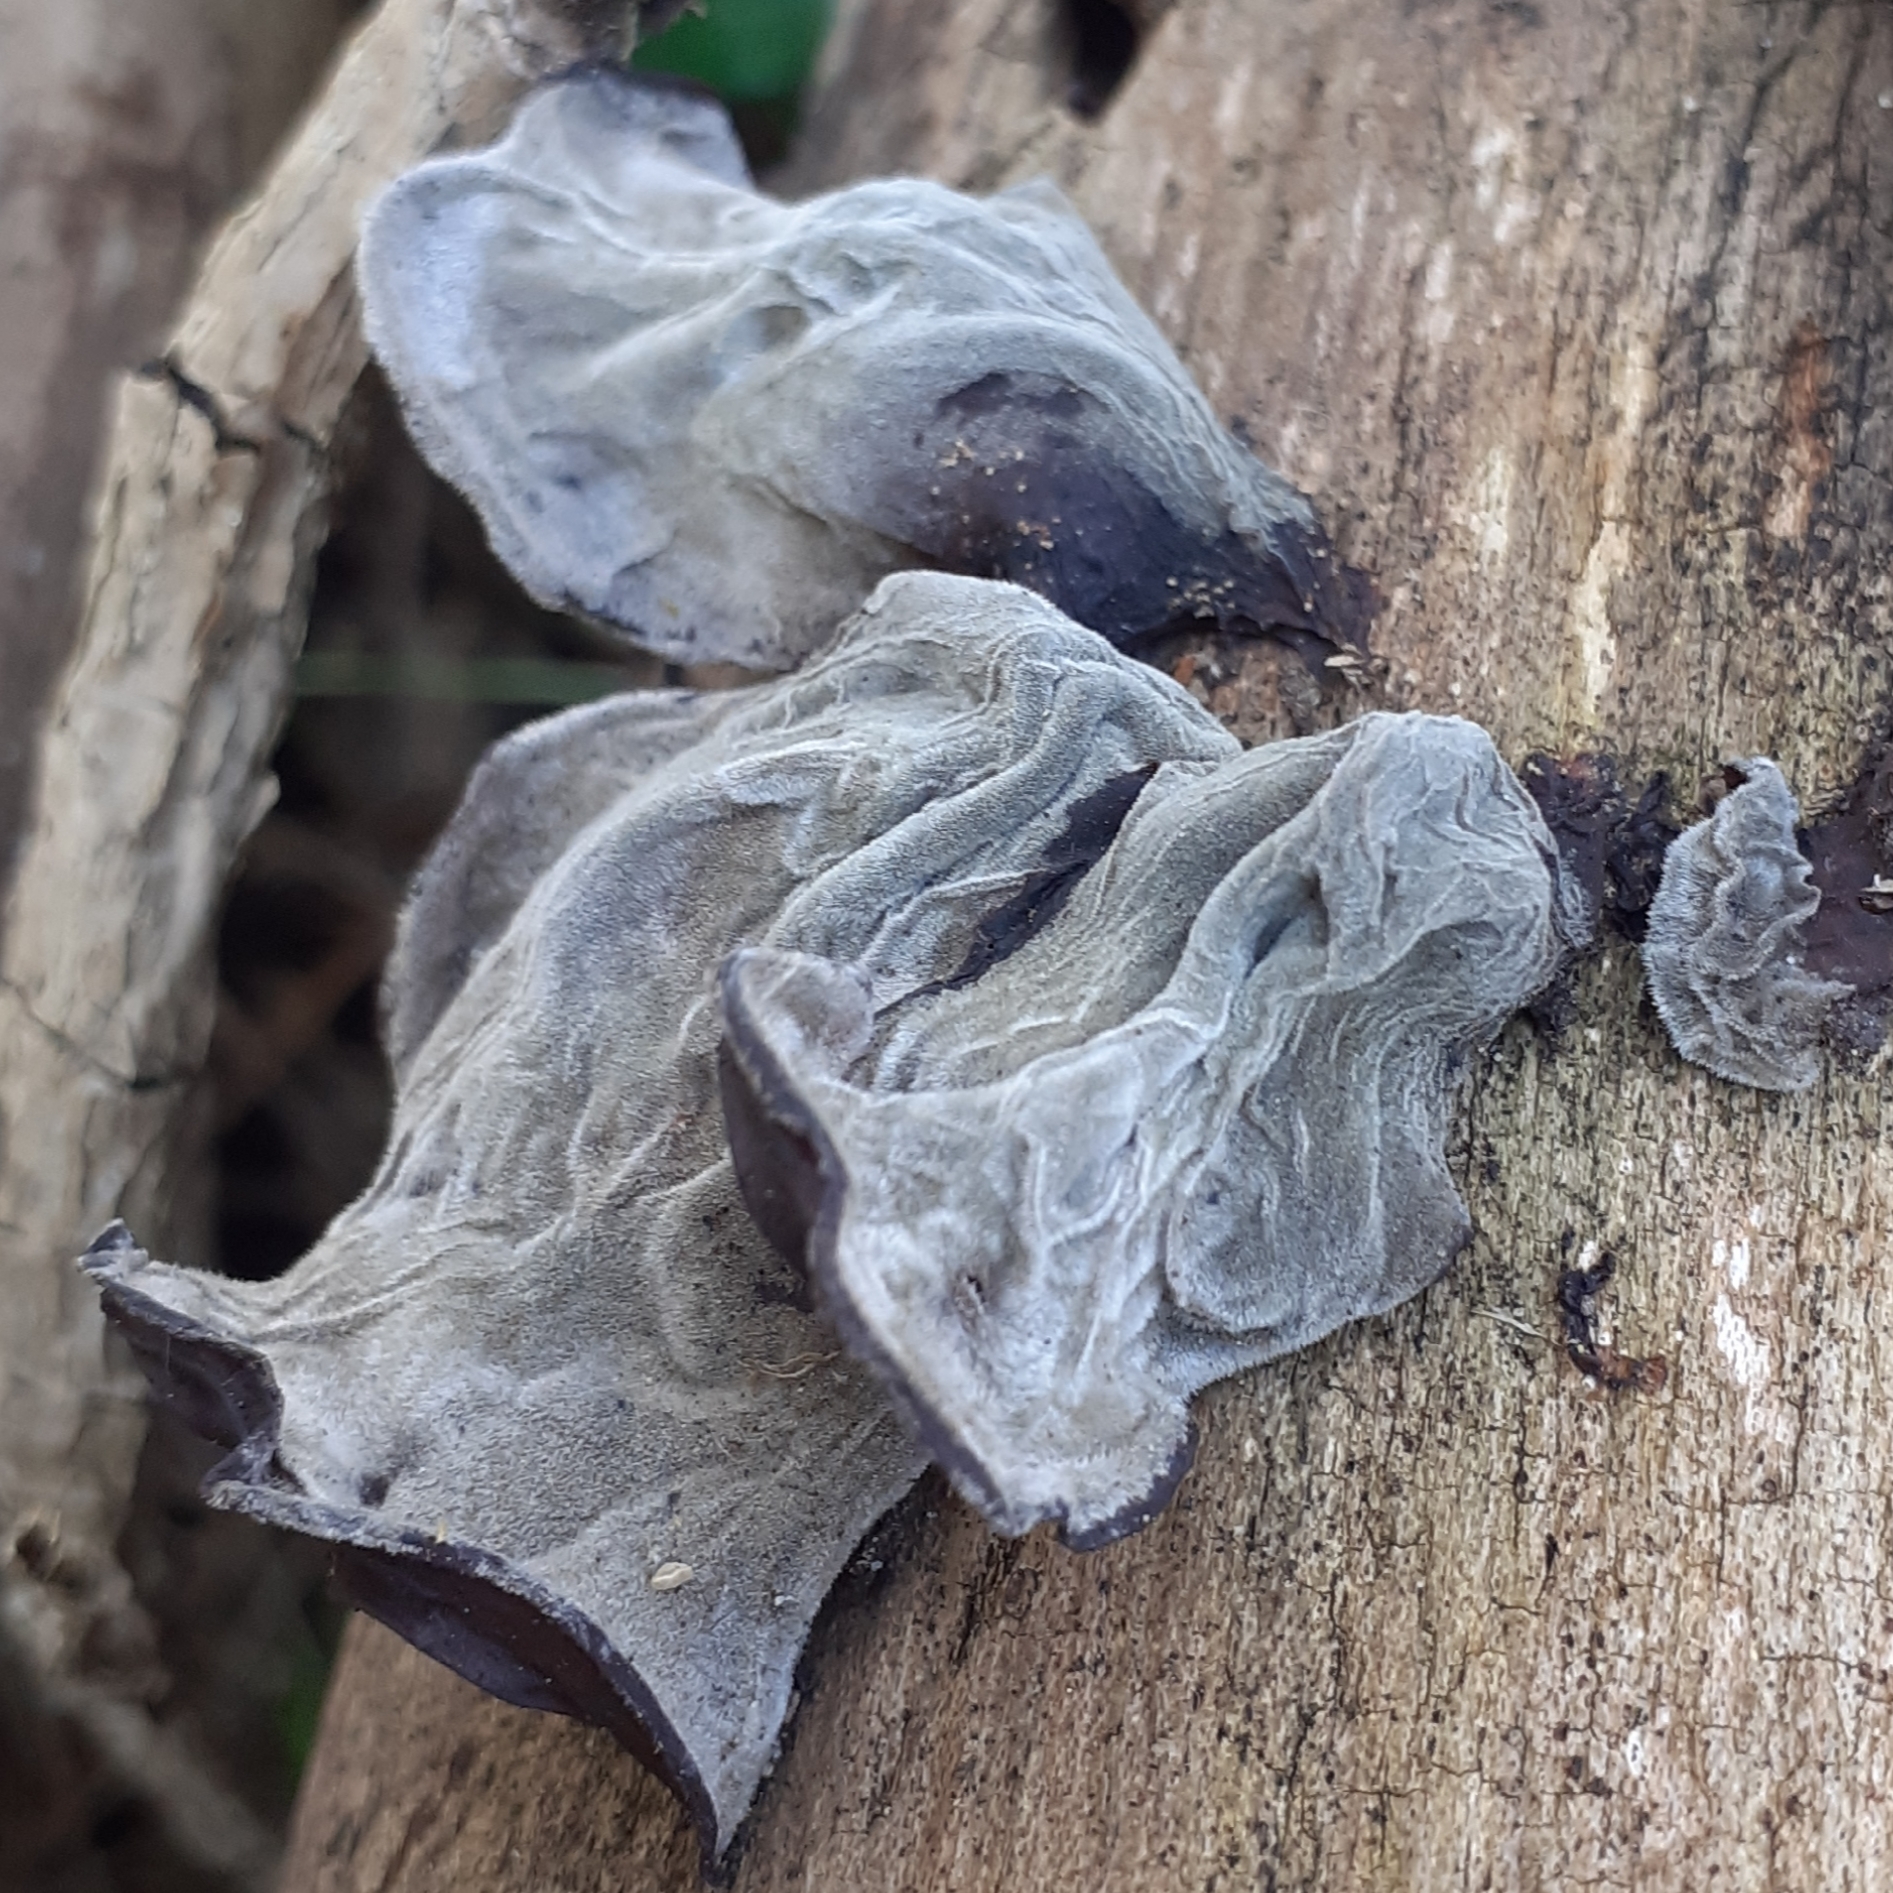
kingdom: Fungi
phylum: Basidiomycota
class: Agaricomycetes
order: Auriculariales
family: Auriculariaceae
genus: Auricularia
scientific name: Auricularia auricula-judae
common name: Jelly ear
